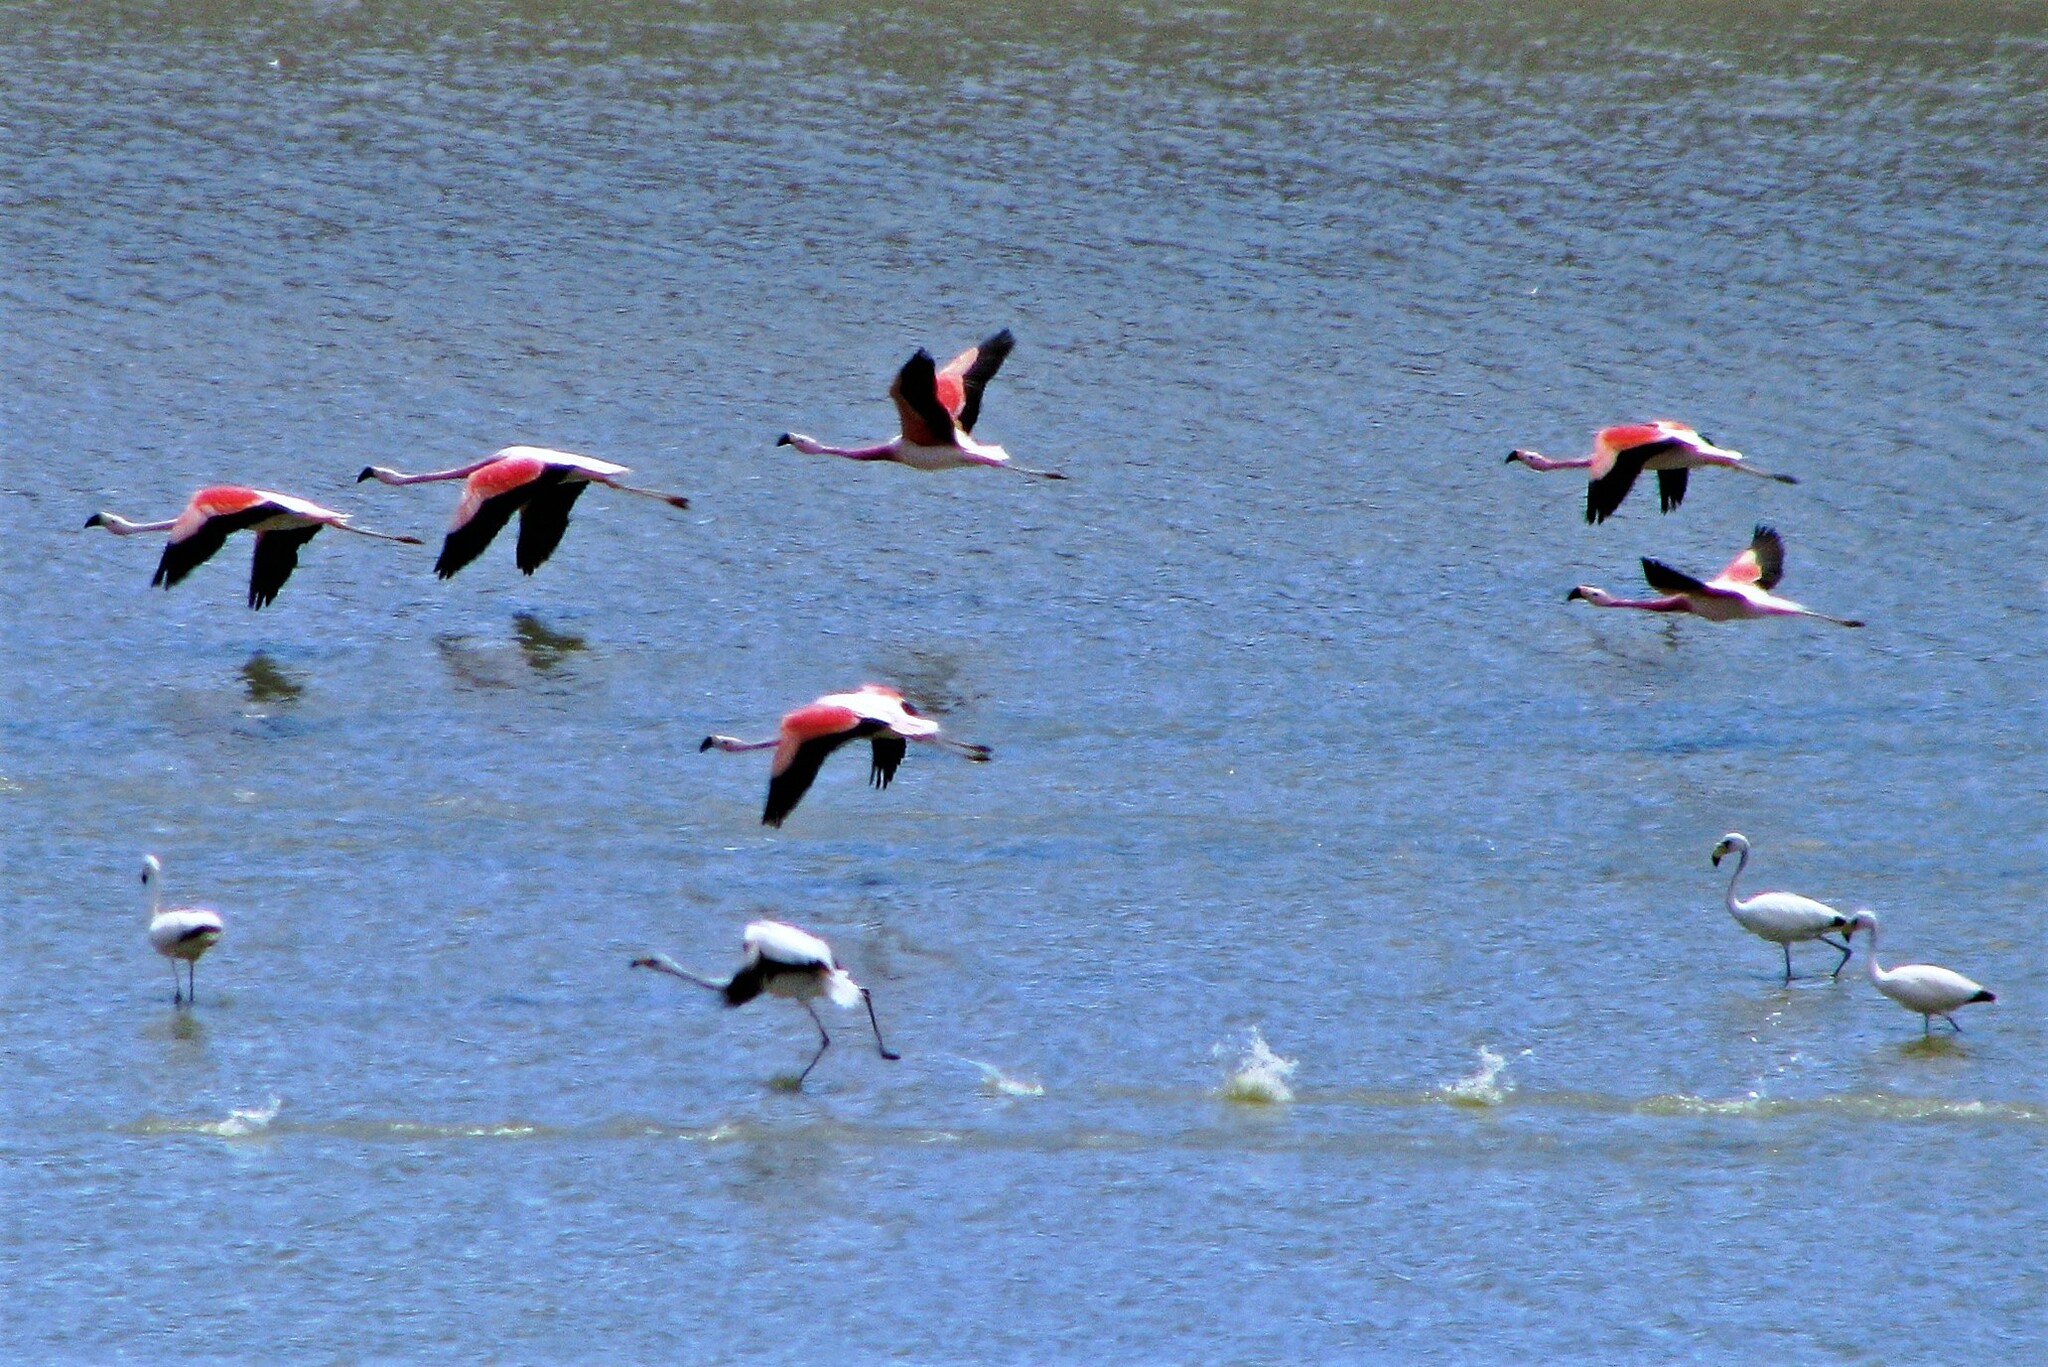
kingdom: Animalia
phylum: Chordata
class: Aves
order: Phoenicopteriformes
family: Phoenicopteridae
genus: Phoenicoparrus
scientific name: Phoenicoparrus andinus
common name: Andean flamingo
